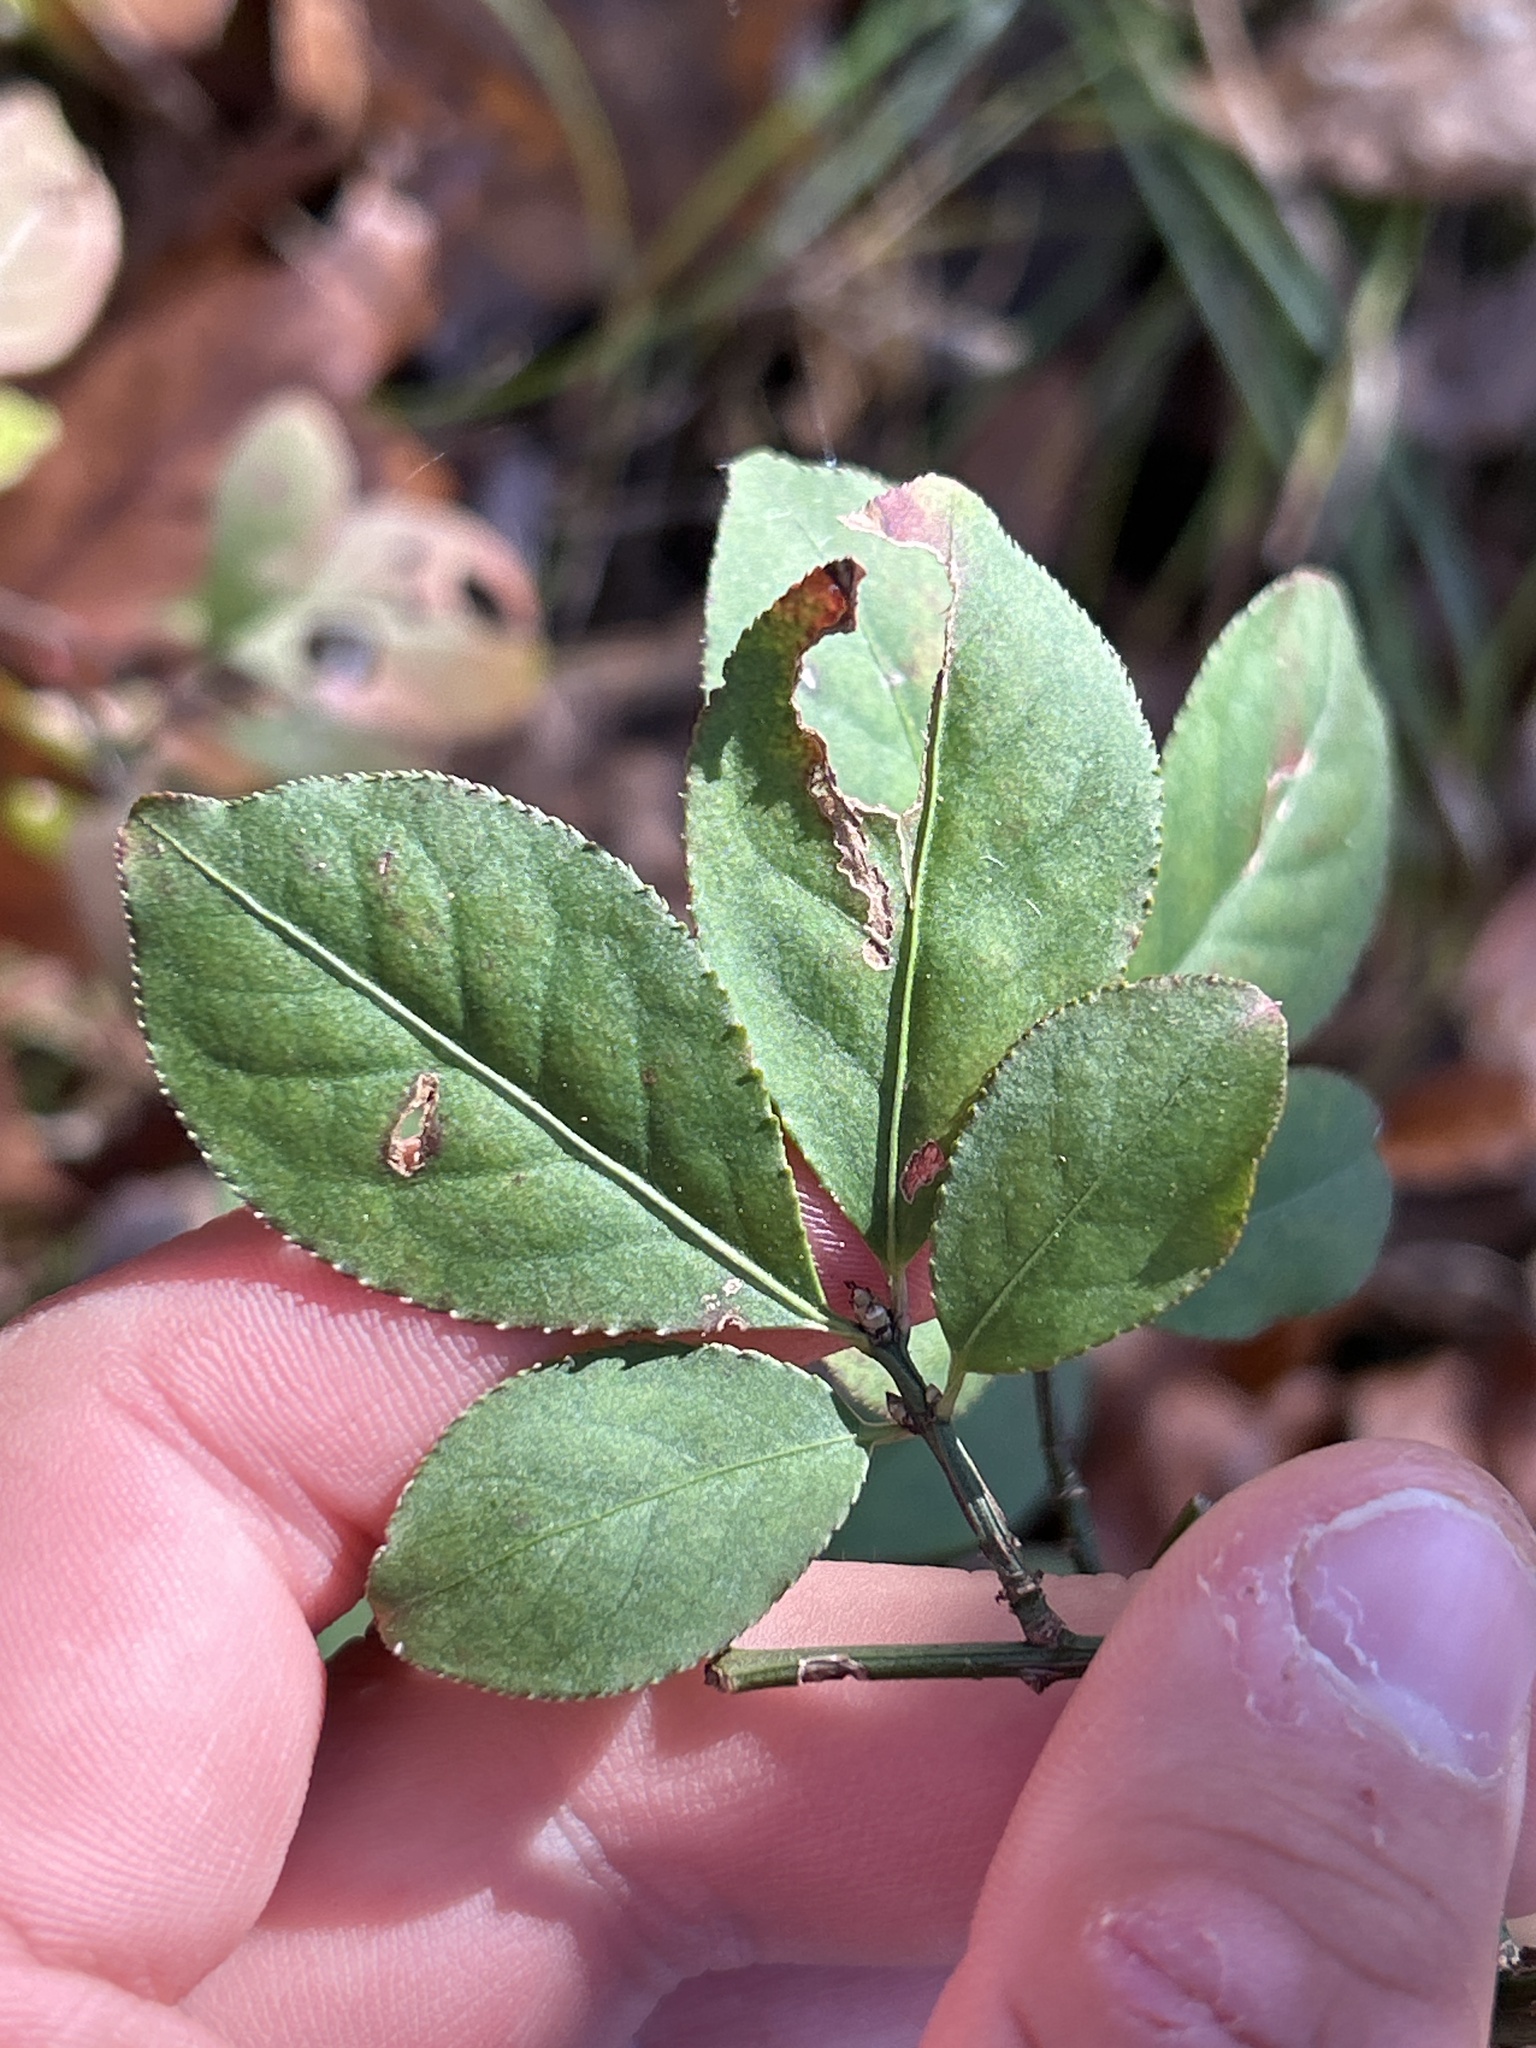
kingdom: Plantae
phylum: Tracheophyta
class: Magnoliopsida
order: Celastrales
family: Celastraceae
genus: Euonymus
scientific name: Euonymus alatus
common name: Winged euonymus
